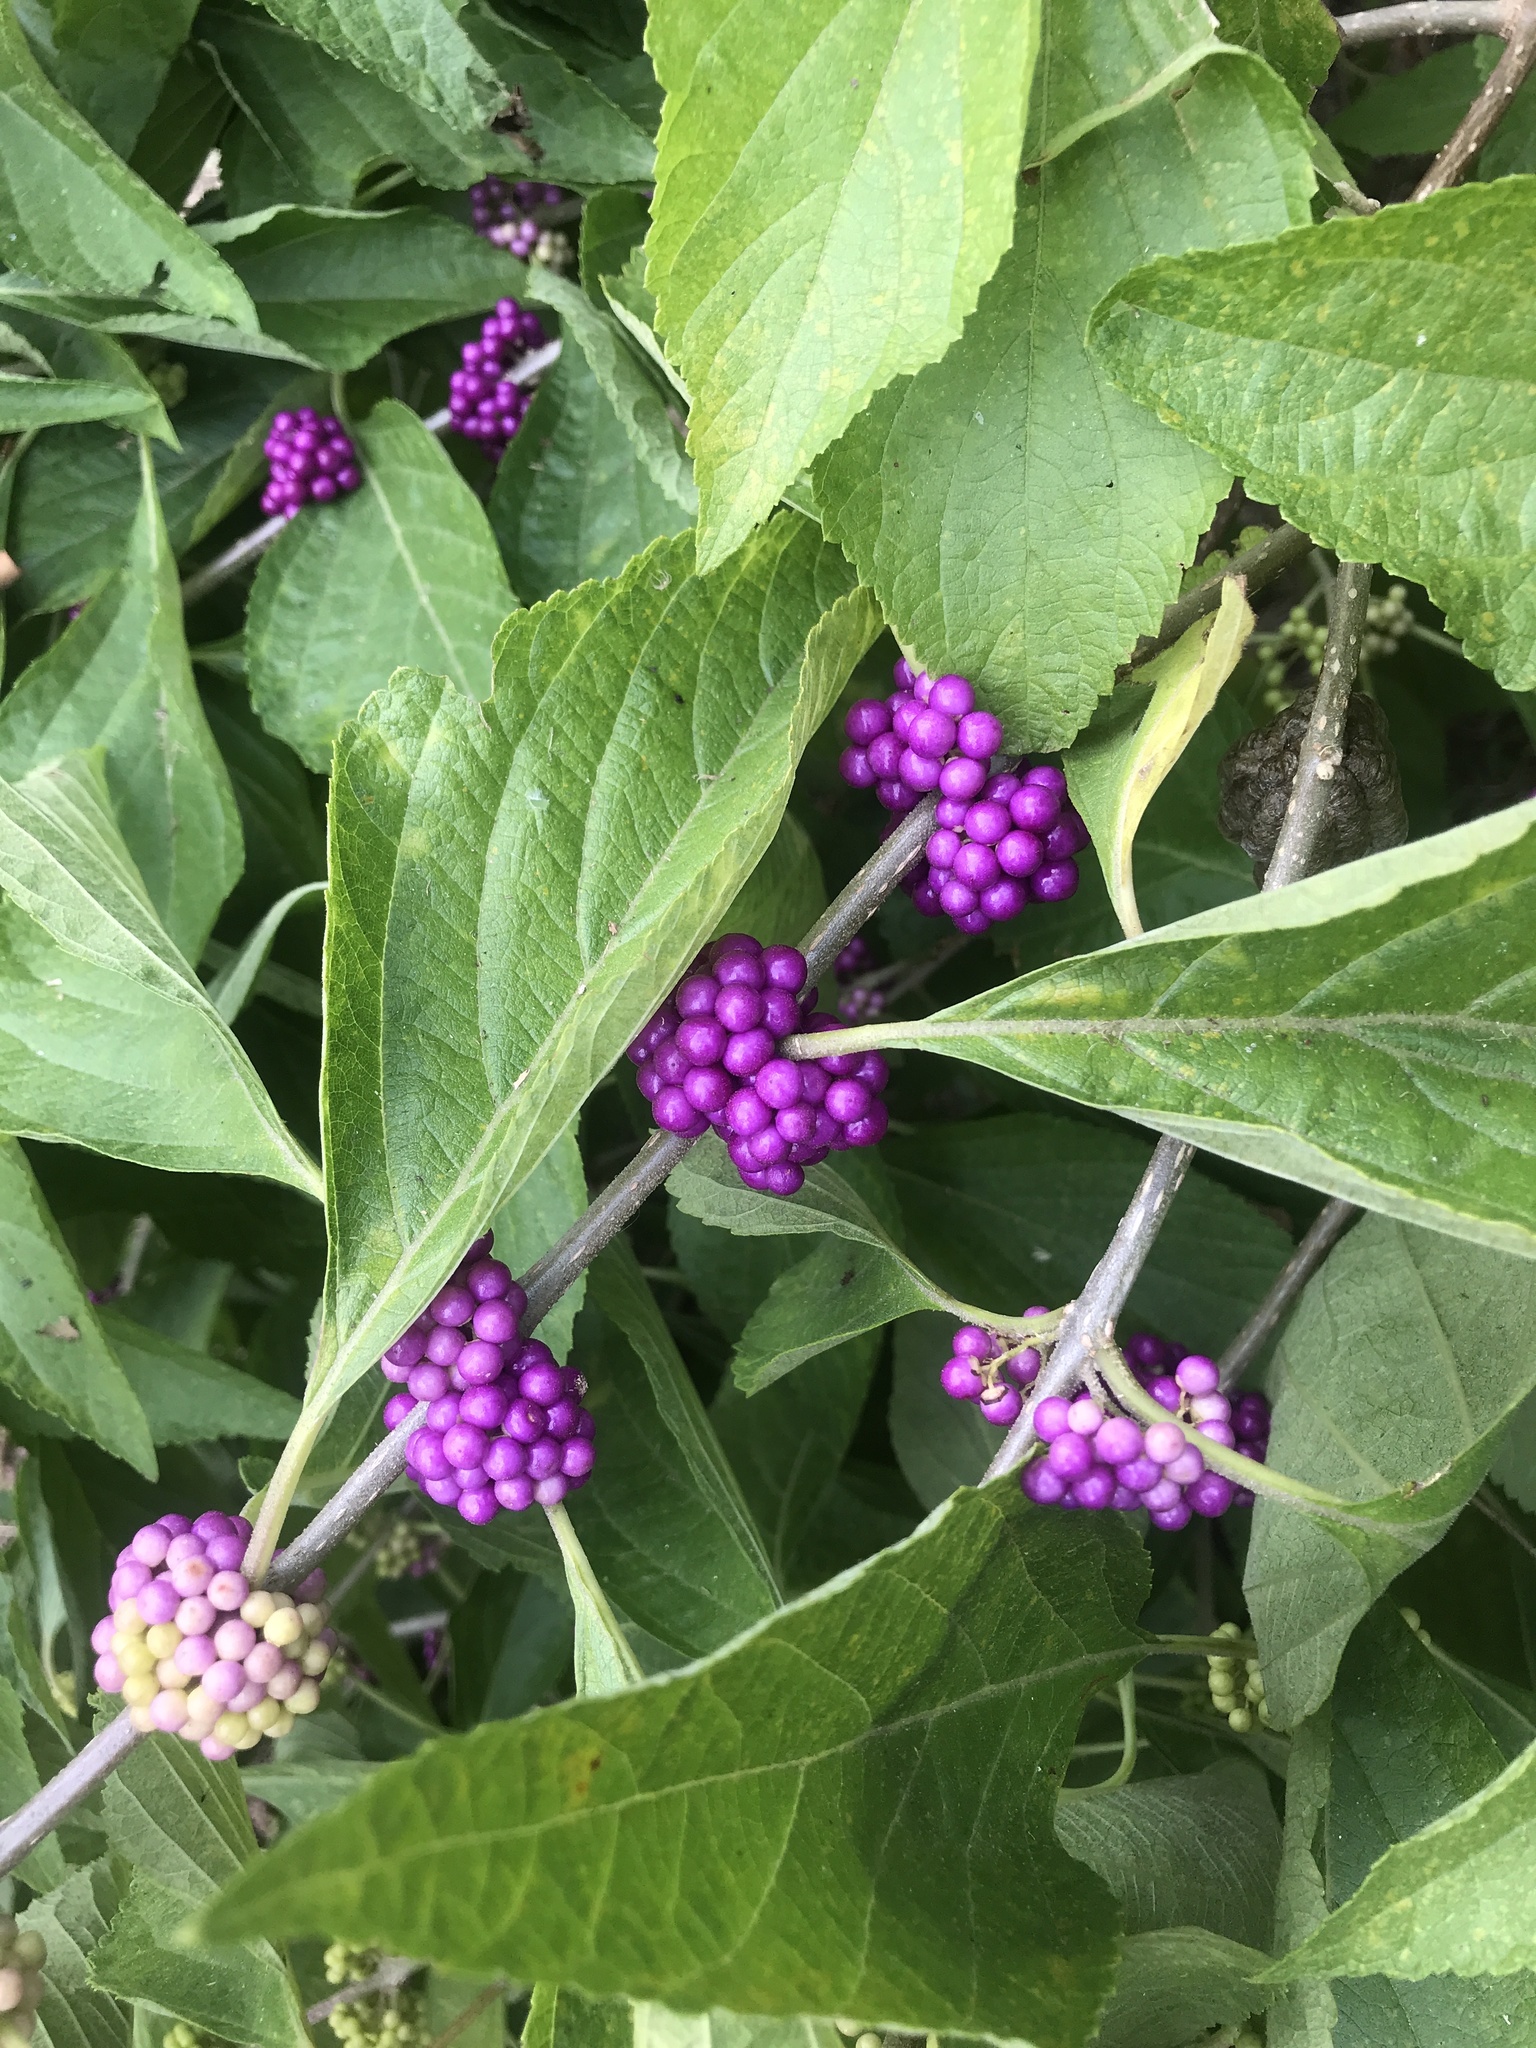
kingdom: Plantae
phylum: Tracheophyta
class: Magnoliopsida
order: Lamiales
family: Lamiaceae
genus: Callicarpa
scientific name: Callicarpa americana
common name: American beautyberry
